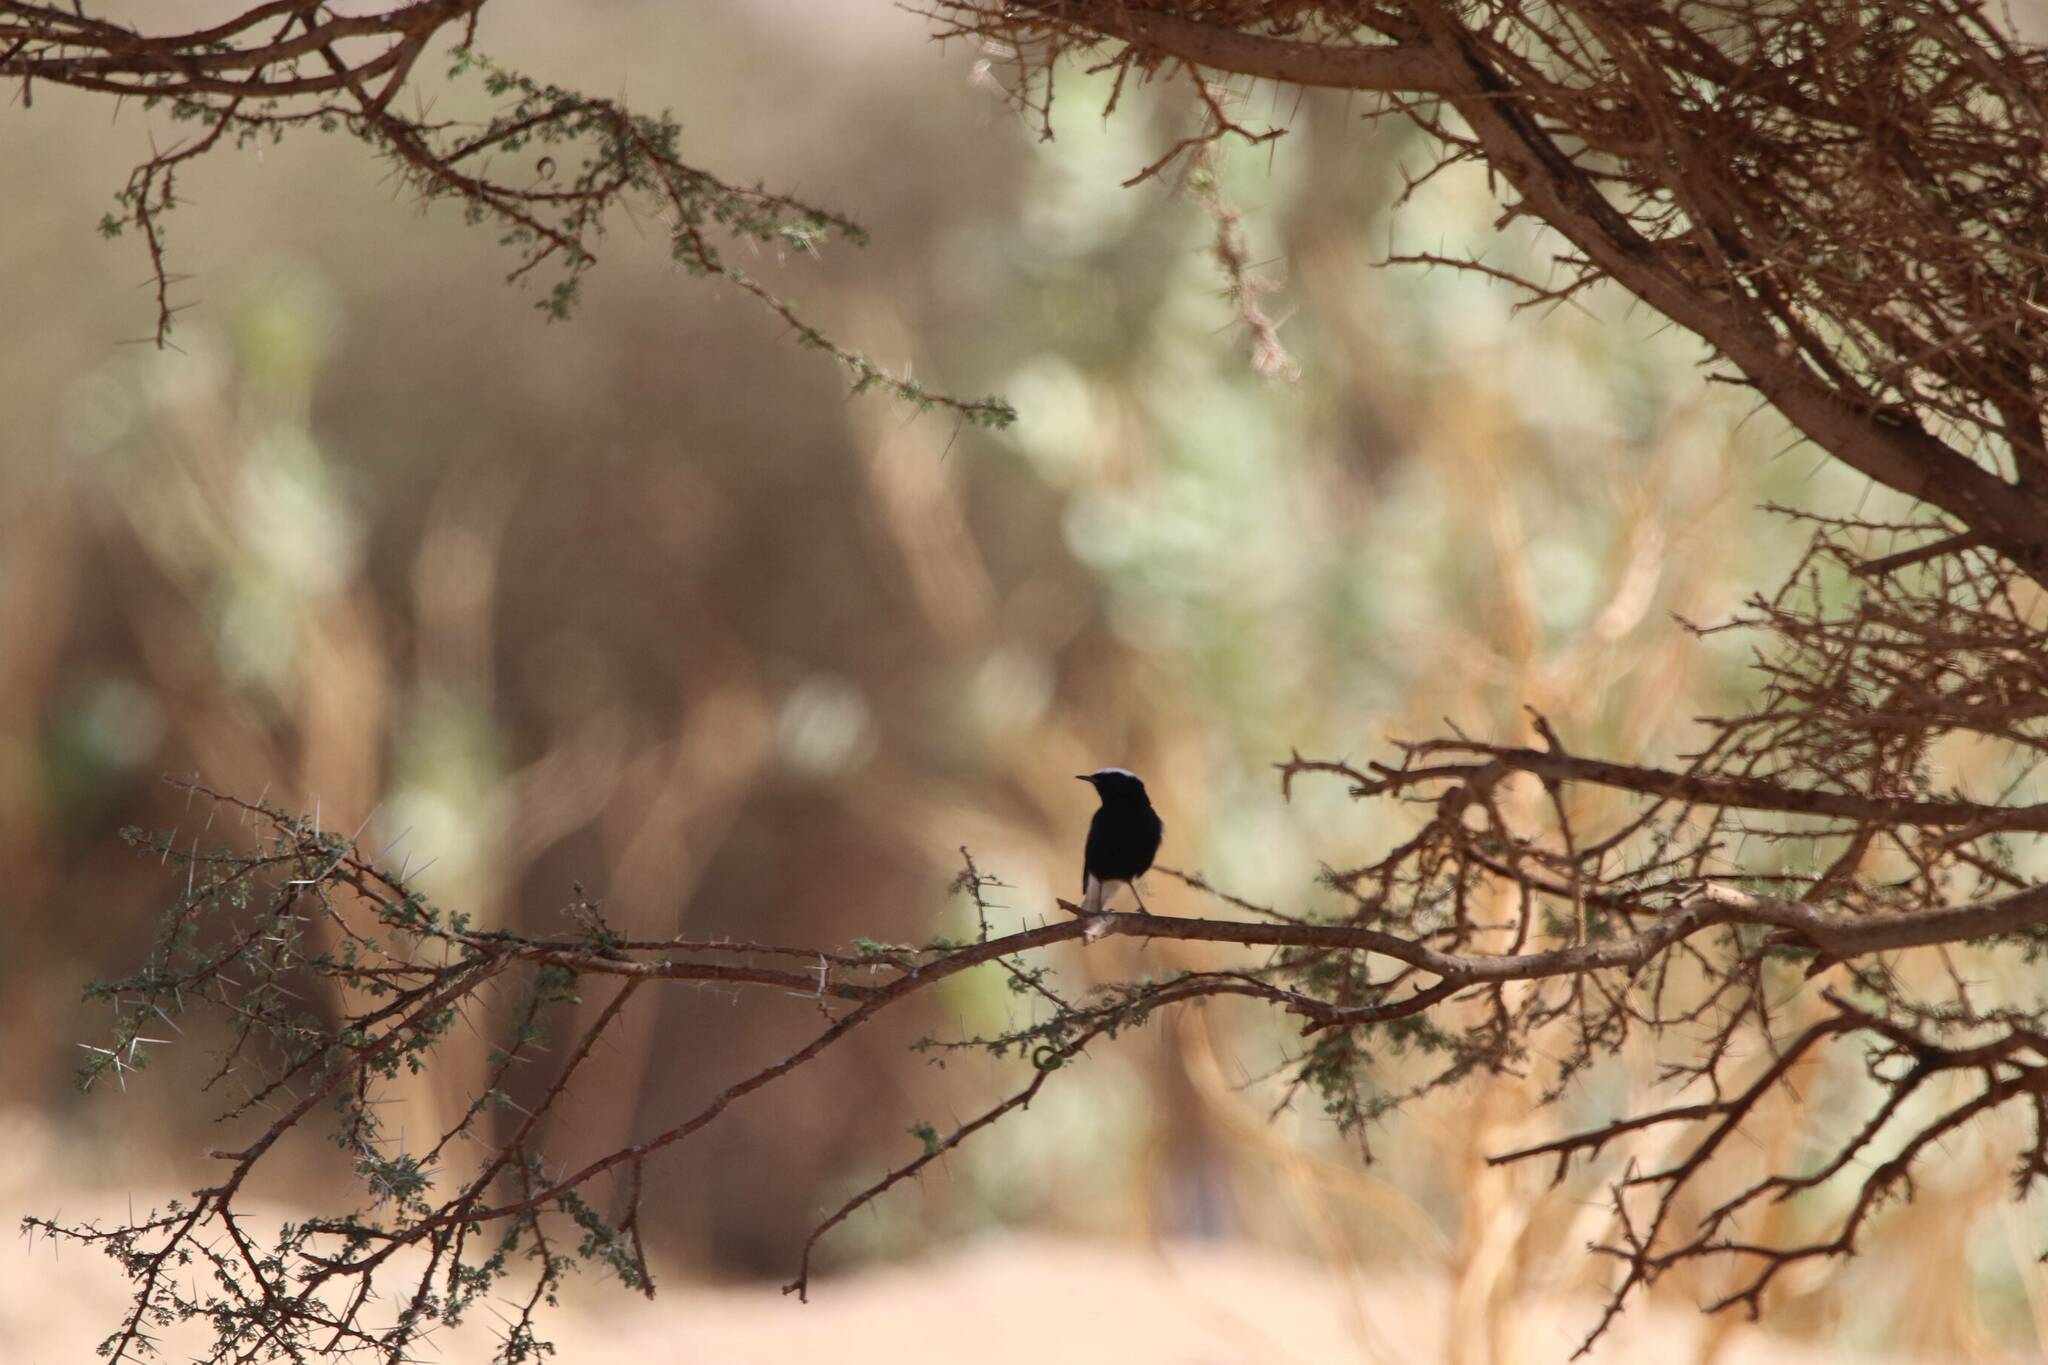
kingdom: Animalia
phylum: Chordata
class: Aves
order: Passeriformes
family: Muscicapidae
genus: Oenanthe
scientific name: Oenanthe leucopyga
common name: White-crowned wheatear
